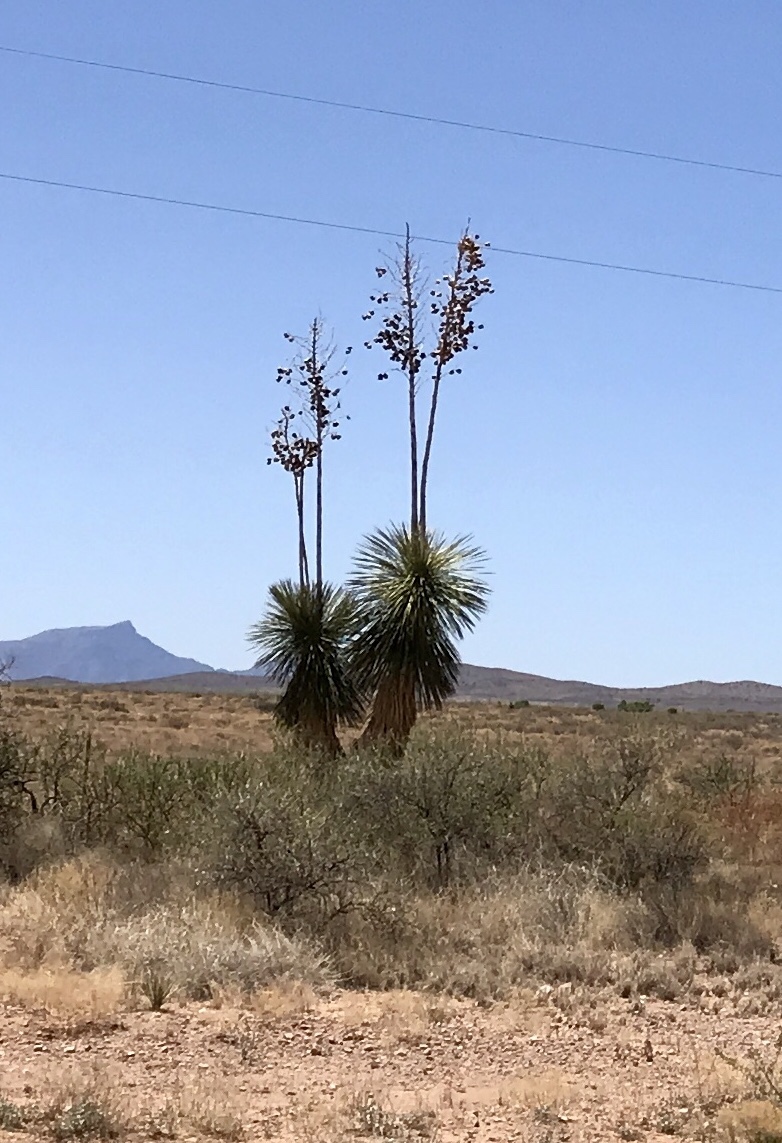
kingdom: Plantae
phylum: Tracheophyta
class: Liliopsida
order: Asparagales
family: Asparagaceae
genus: Yucca
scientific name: Yucca elata
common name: Palmella
